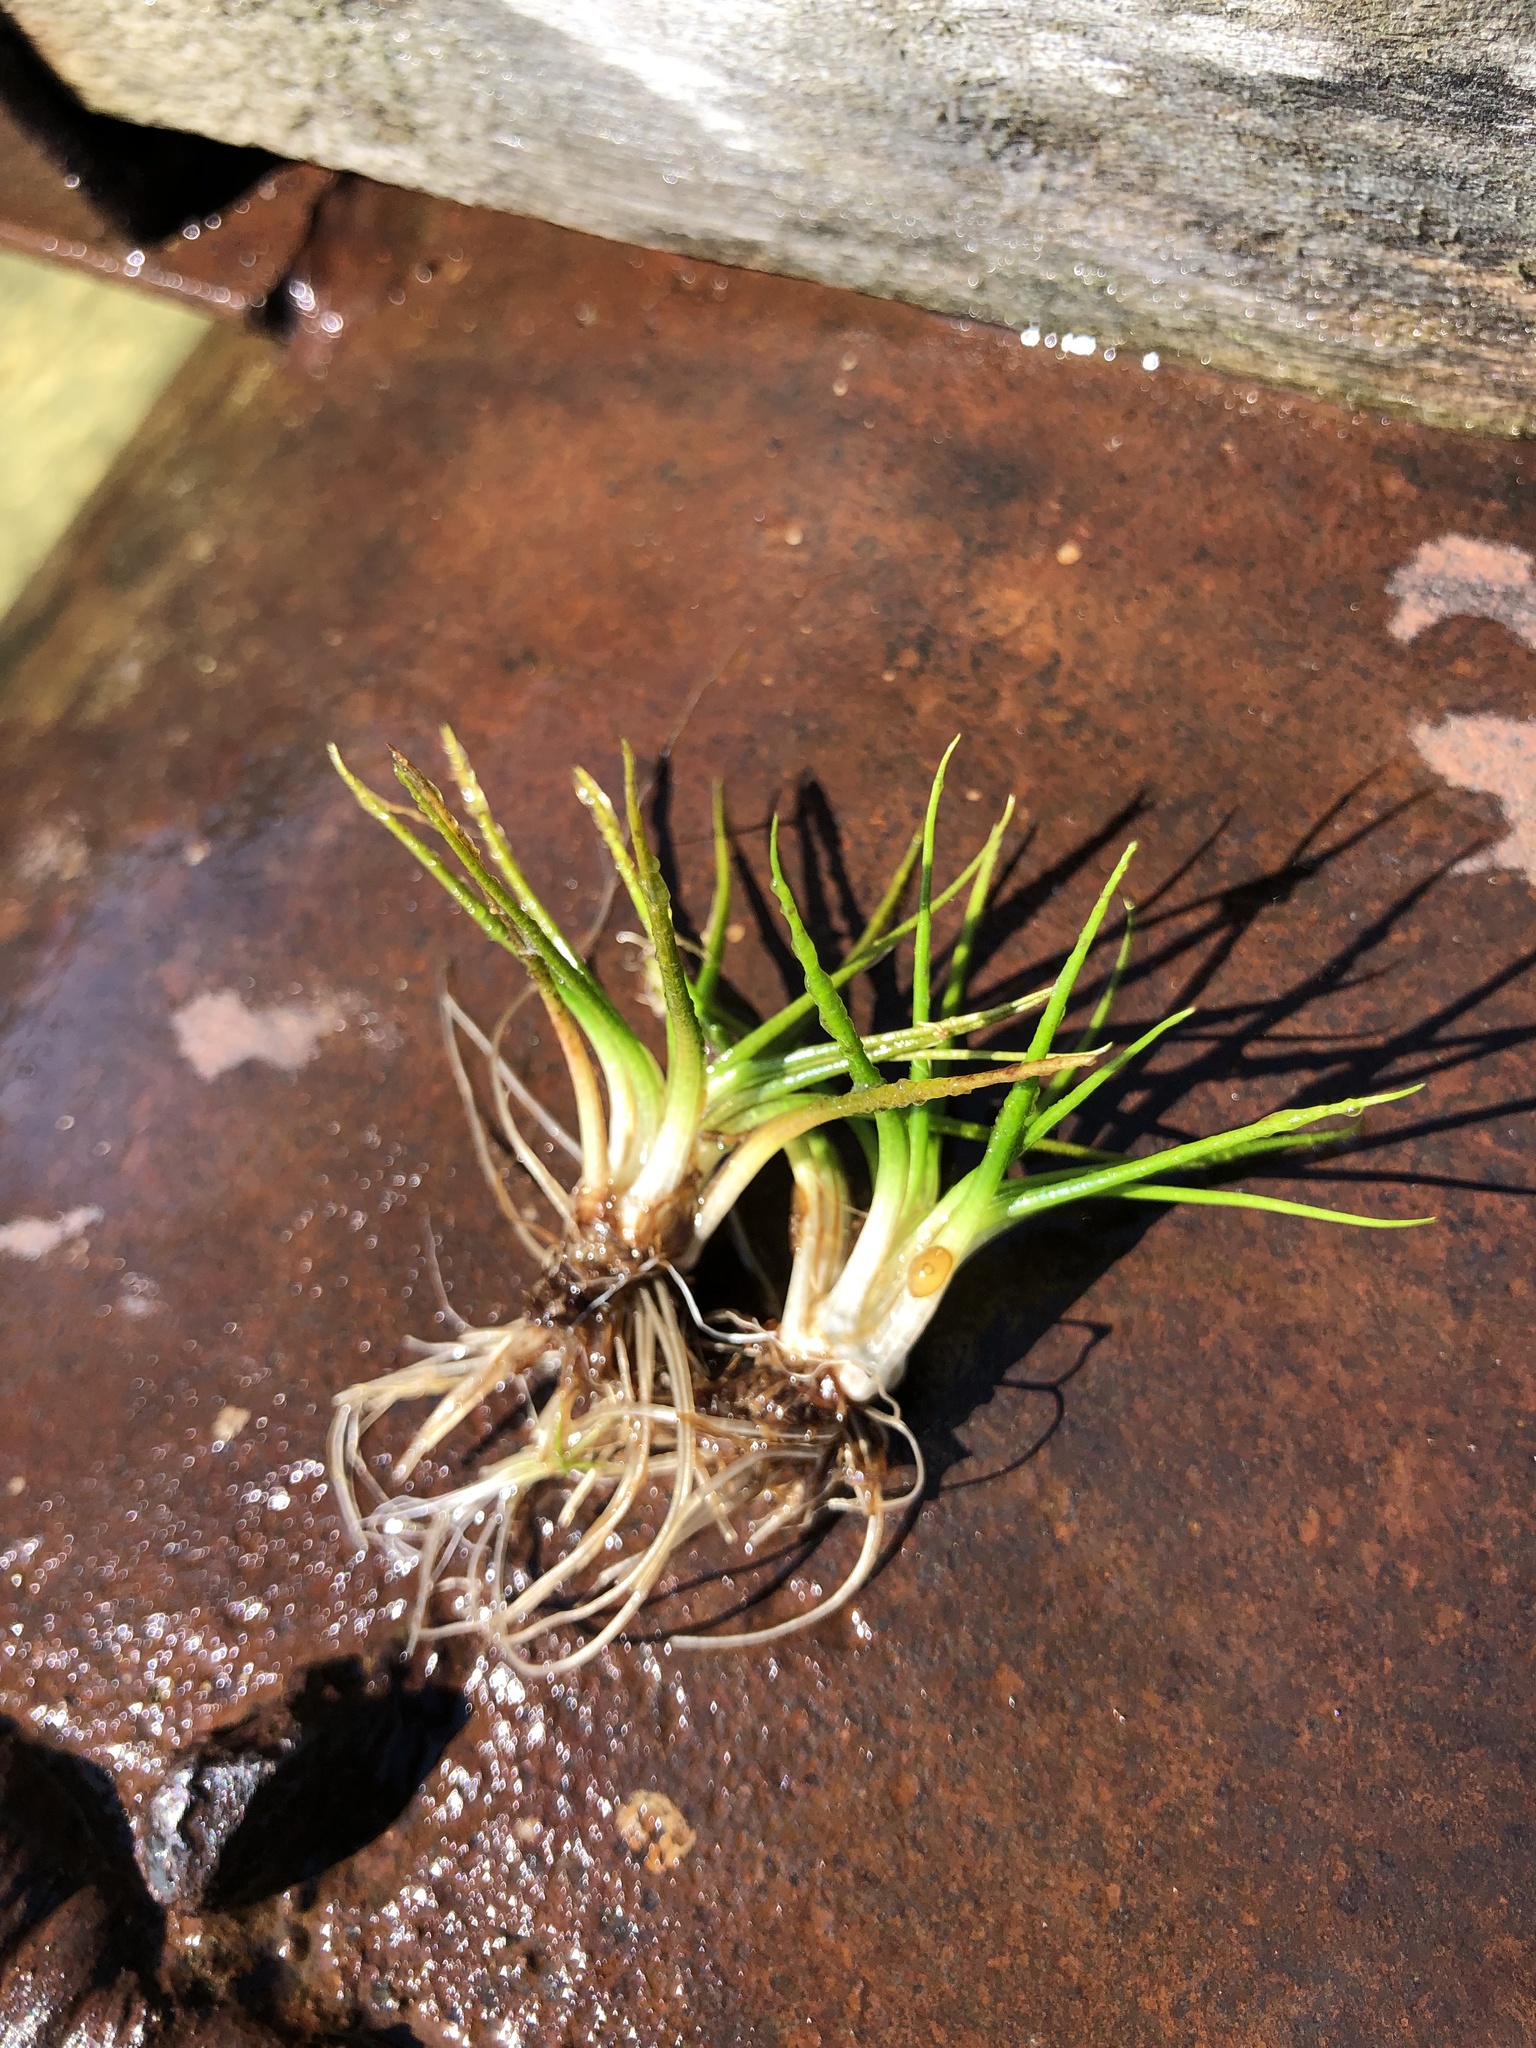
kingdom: Plantae
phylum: Tracheophyta
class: Lycopodiopsida
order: Isoetales
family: Isoetaceae
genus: Isoetes
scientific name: Isoetes echinospora
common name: Spring quillwort
